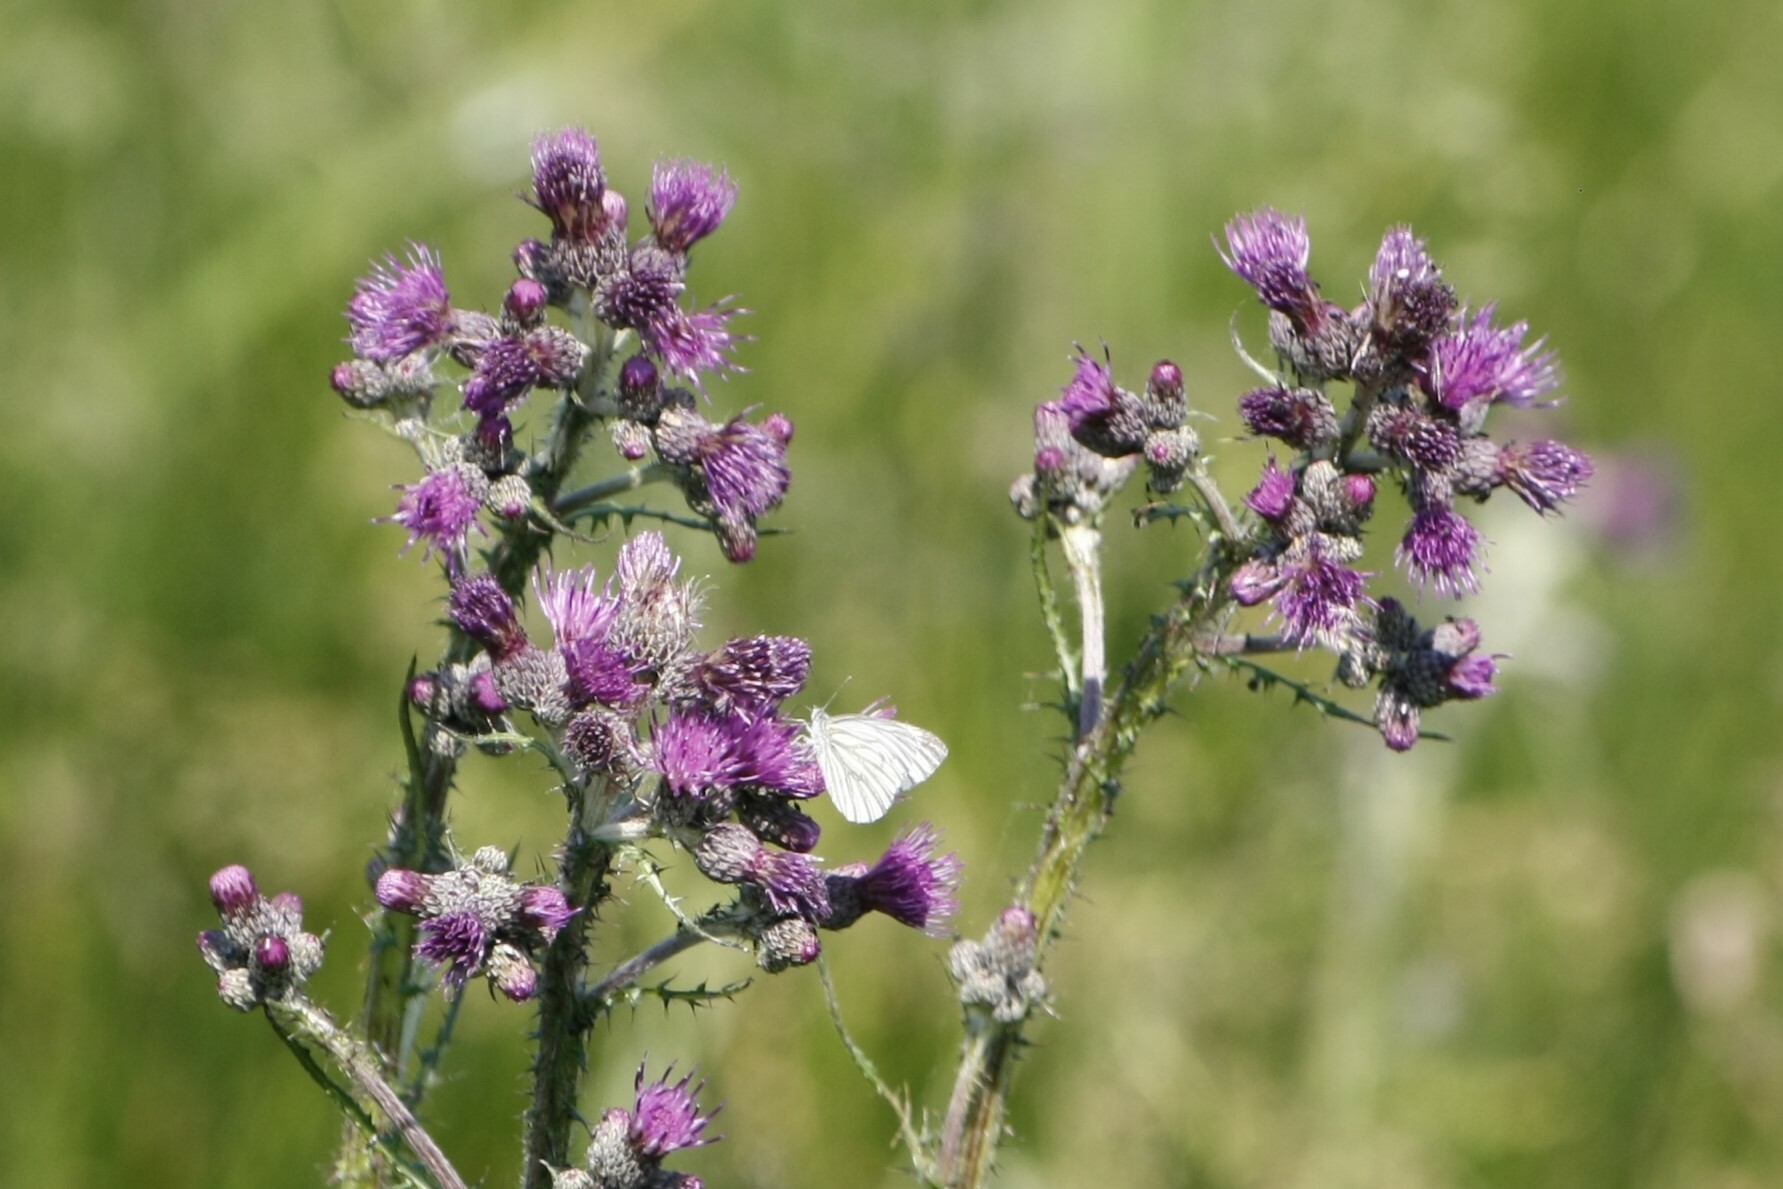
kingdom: Animalia
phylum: Arthropoda
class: Insecta
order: Lepidoptera
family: Pieridae
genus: Pieris
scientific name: Pieris napi
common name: Green-veined white
